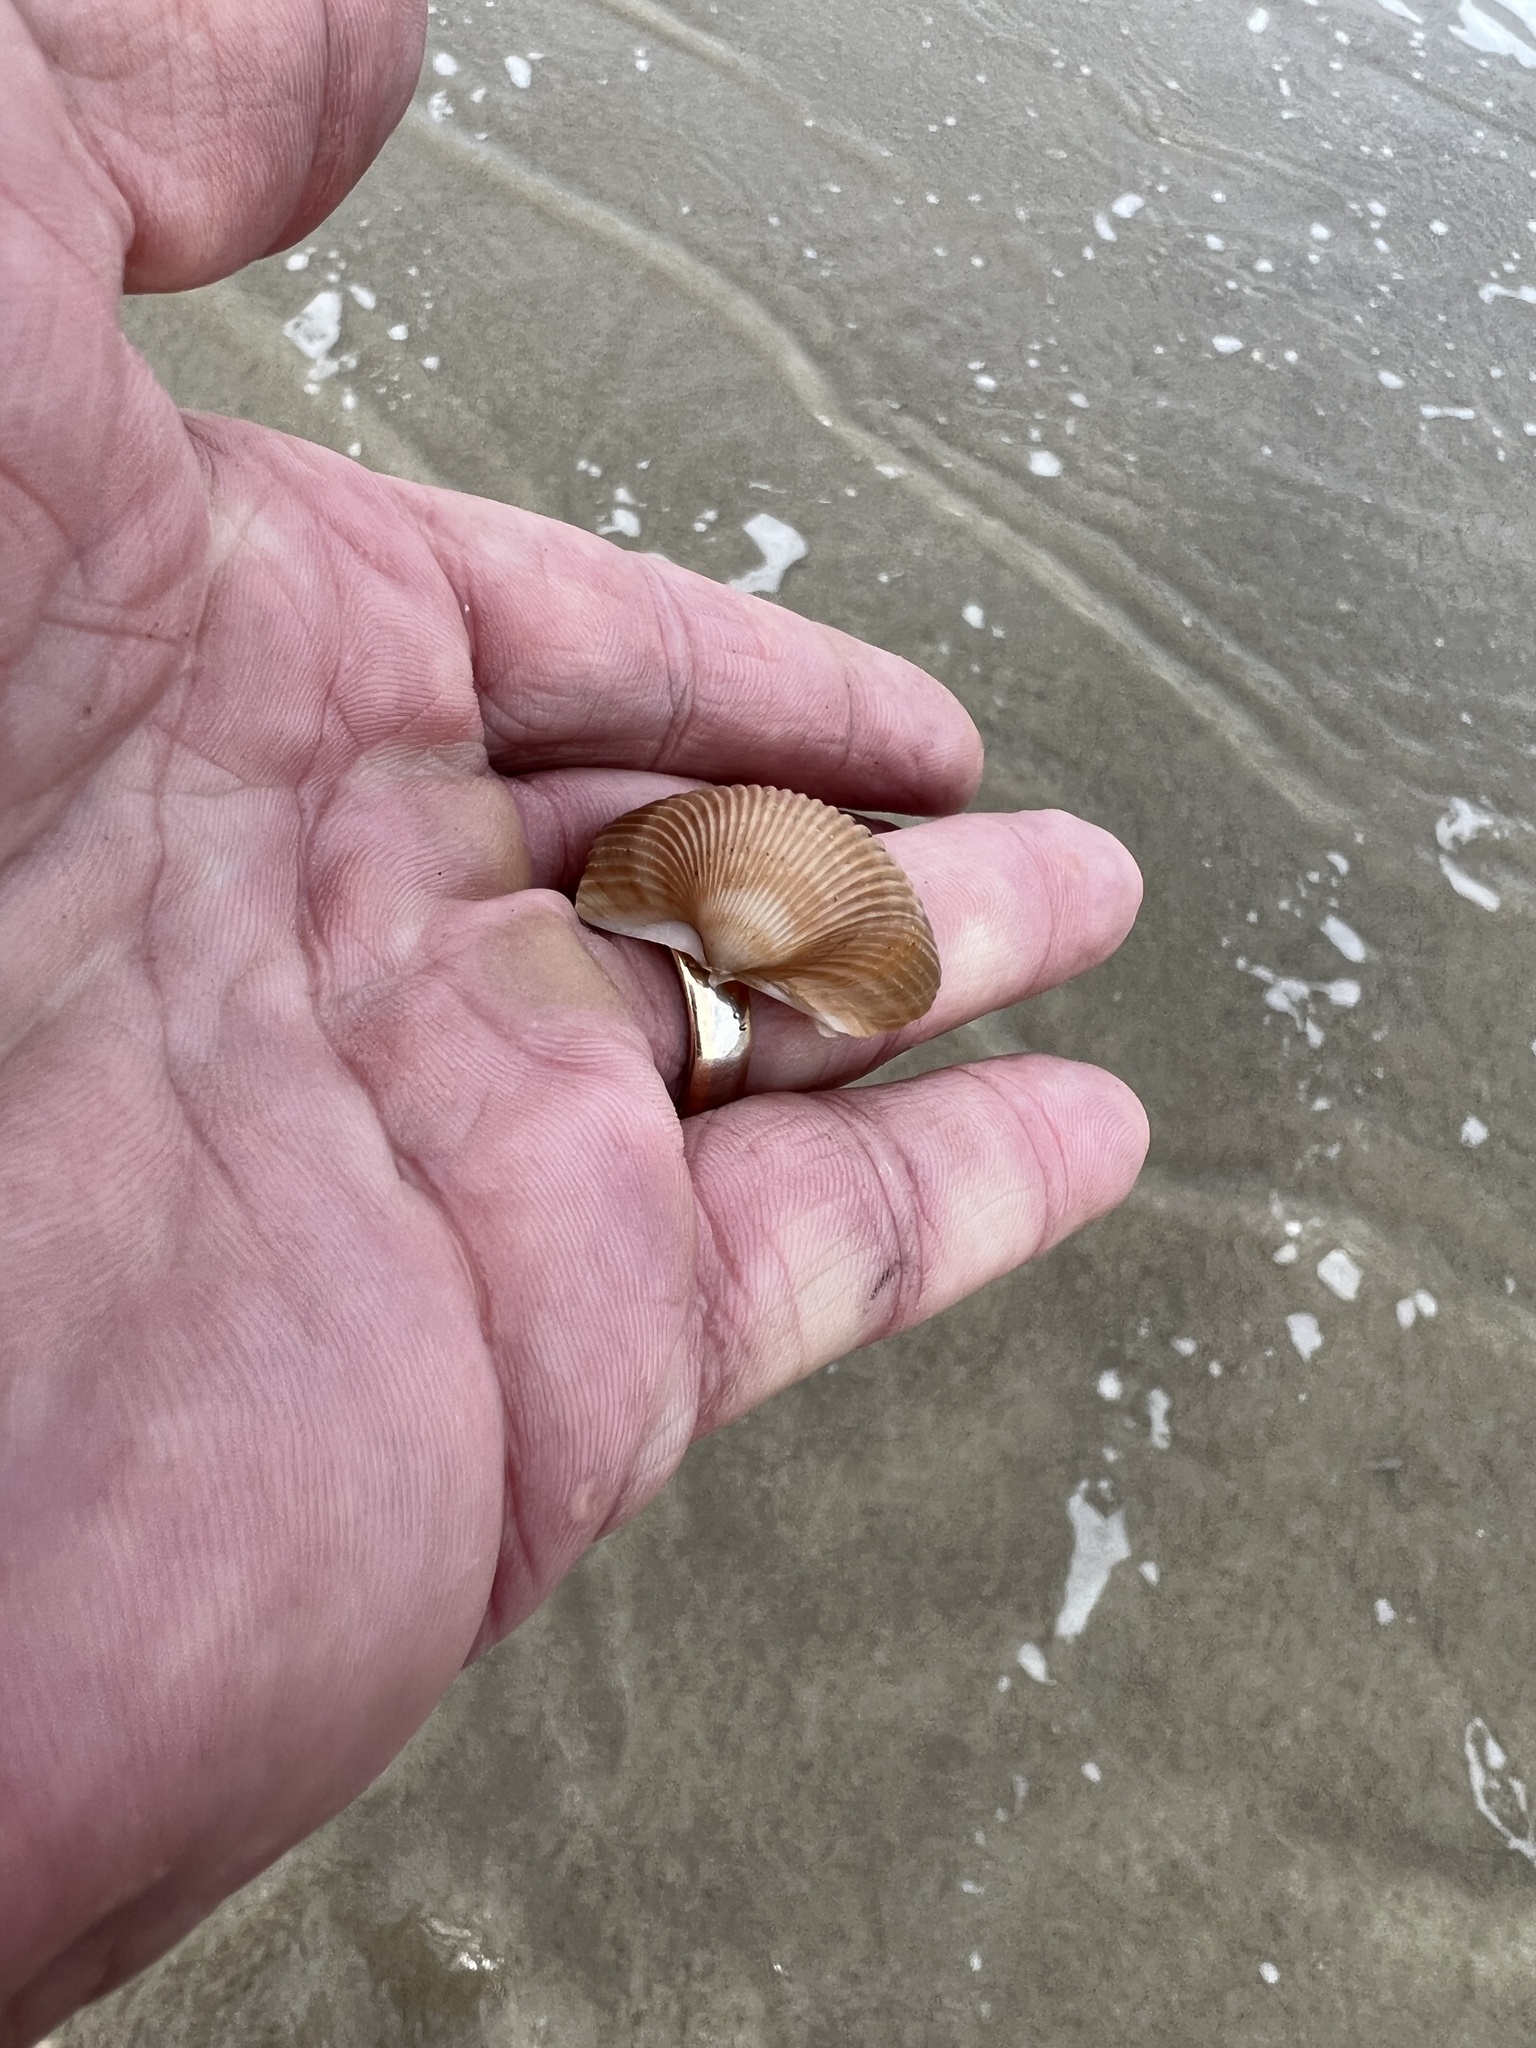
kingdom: Animalia
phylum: Mollusca
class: Bivalvia
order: Cardiida
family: Cardiidae
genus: Dinocardium
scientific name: Dinocardium robustum
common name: Atlantic giant cockle
